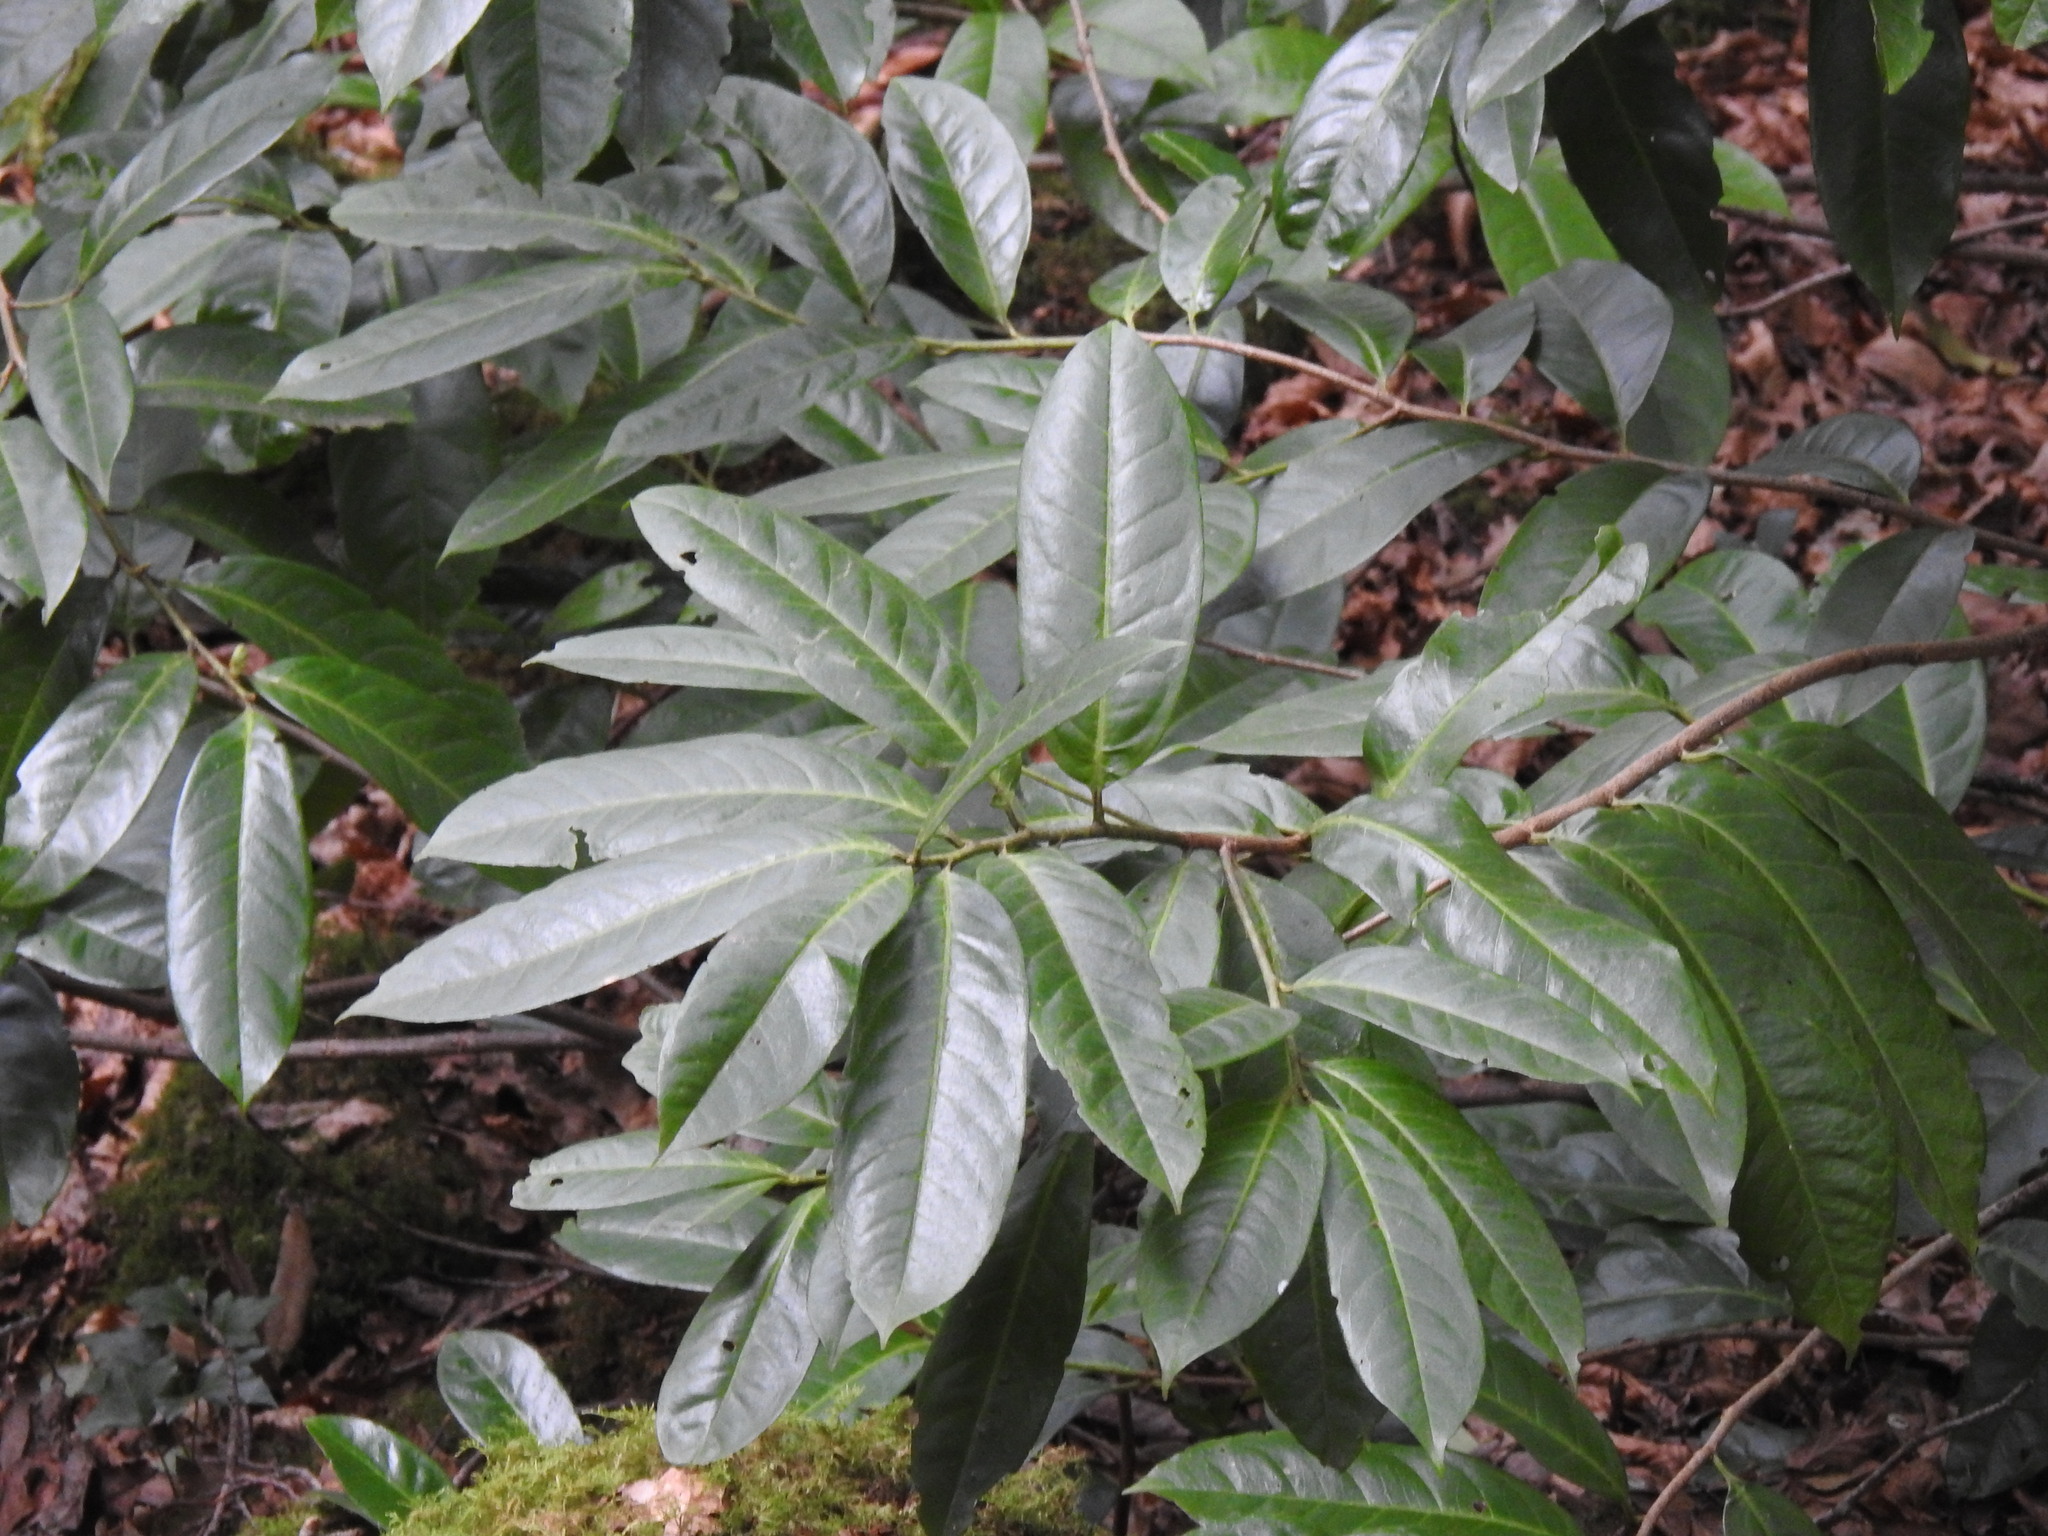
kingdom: Plantae
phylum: Tracheophyta
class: Magnoliopsida
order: Rosales
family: Rosaceae
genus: Prunus
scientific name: Prunus laurocerasus
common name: Cherry laurel
